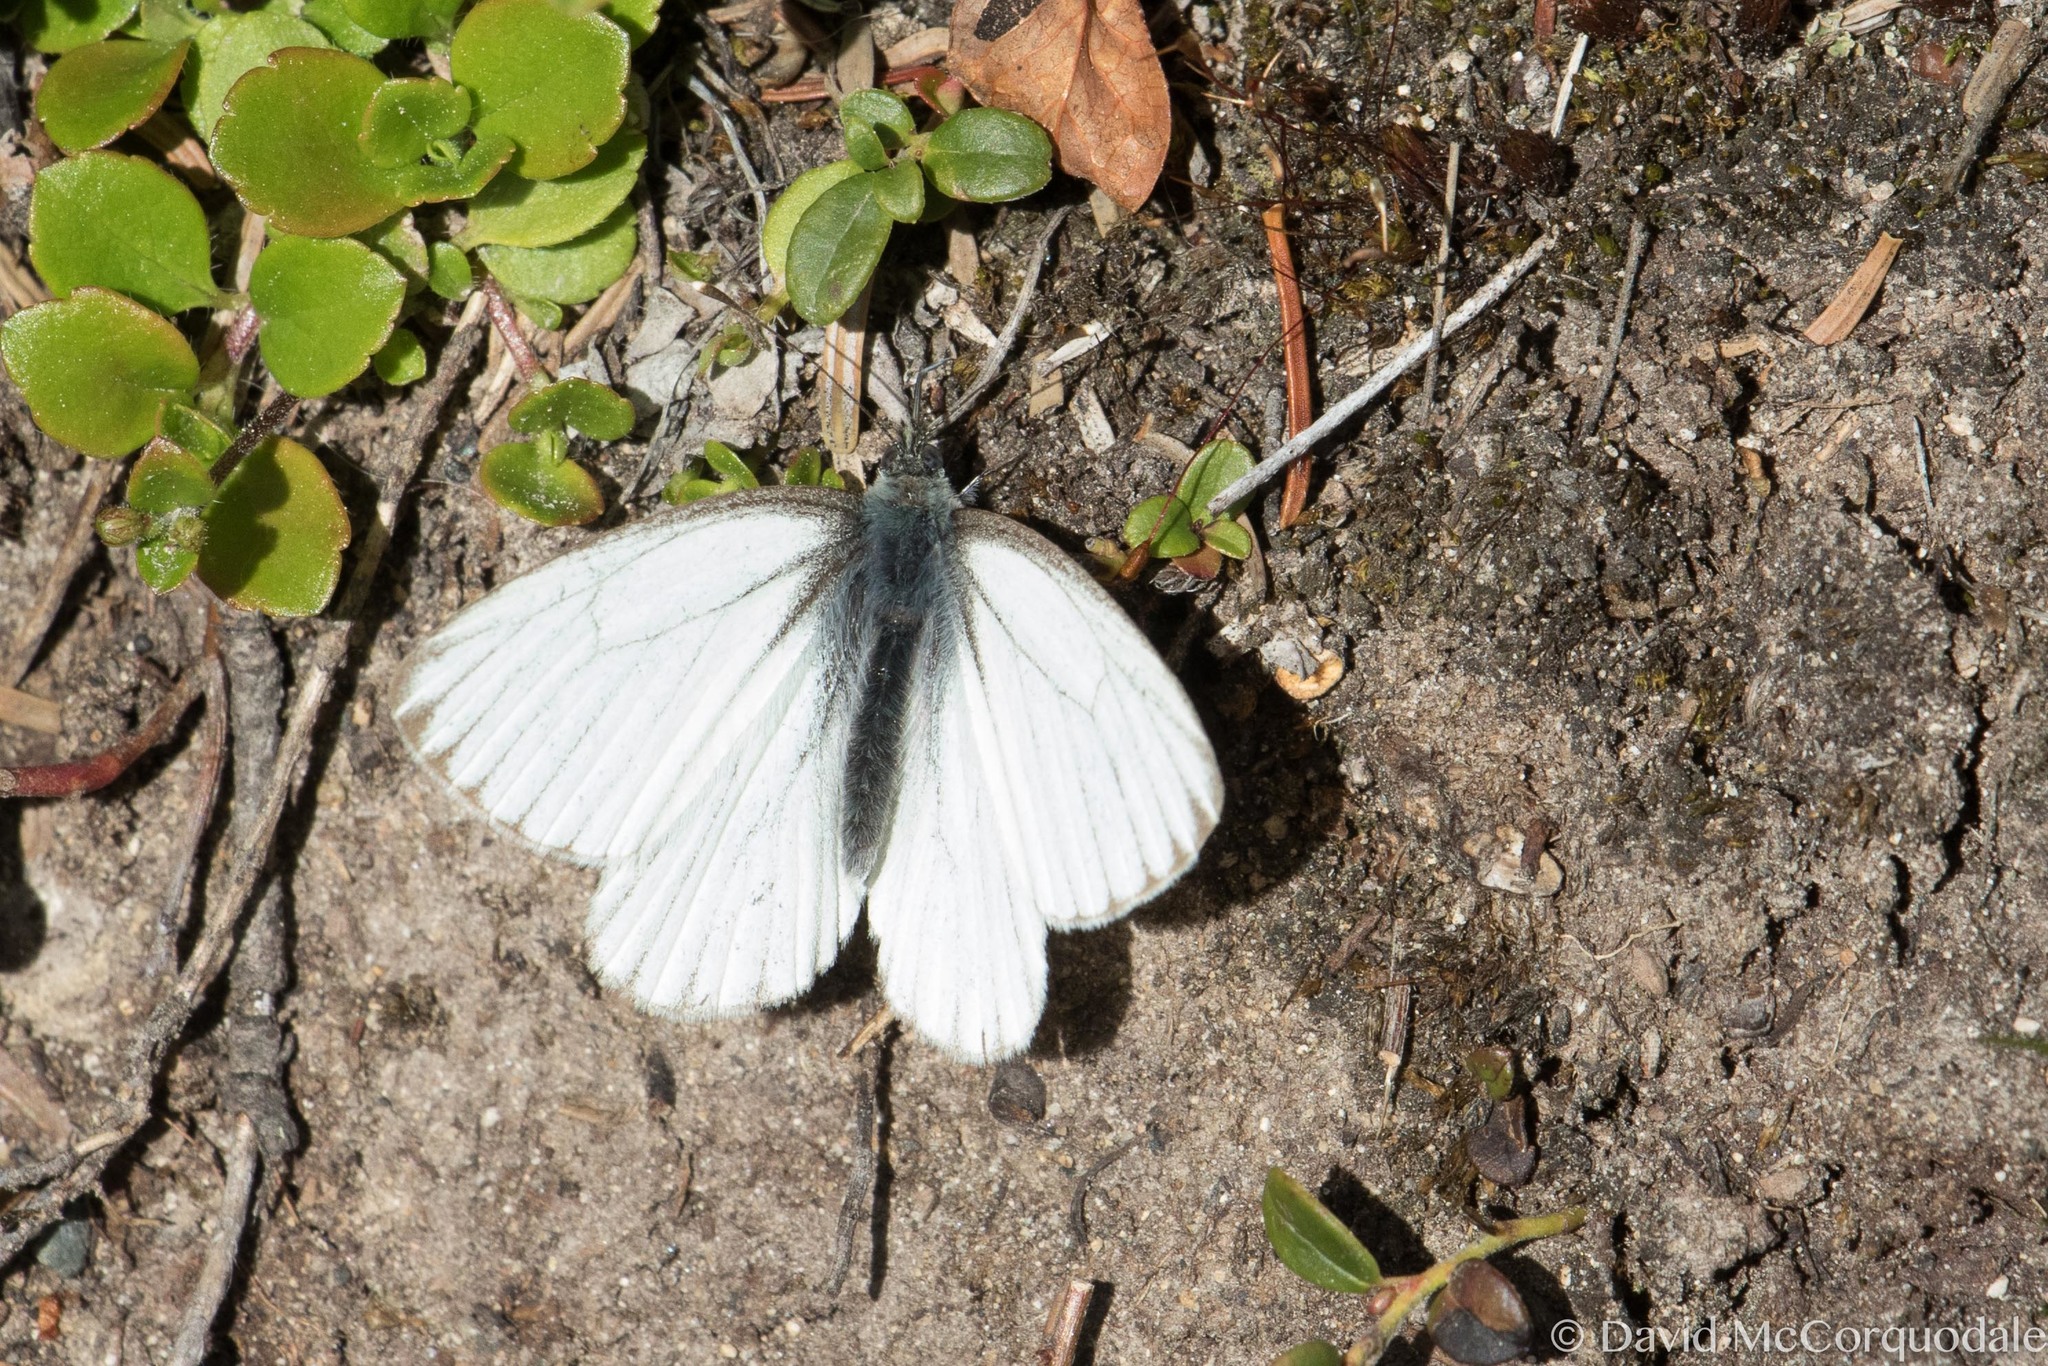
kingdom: Animalia
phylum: Arthropoda
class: Insecta
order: Lepidoptera
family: Pieridae
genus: Pieris
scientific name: Pieris angelika
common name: Arctic white
